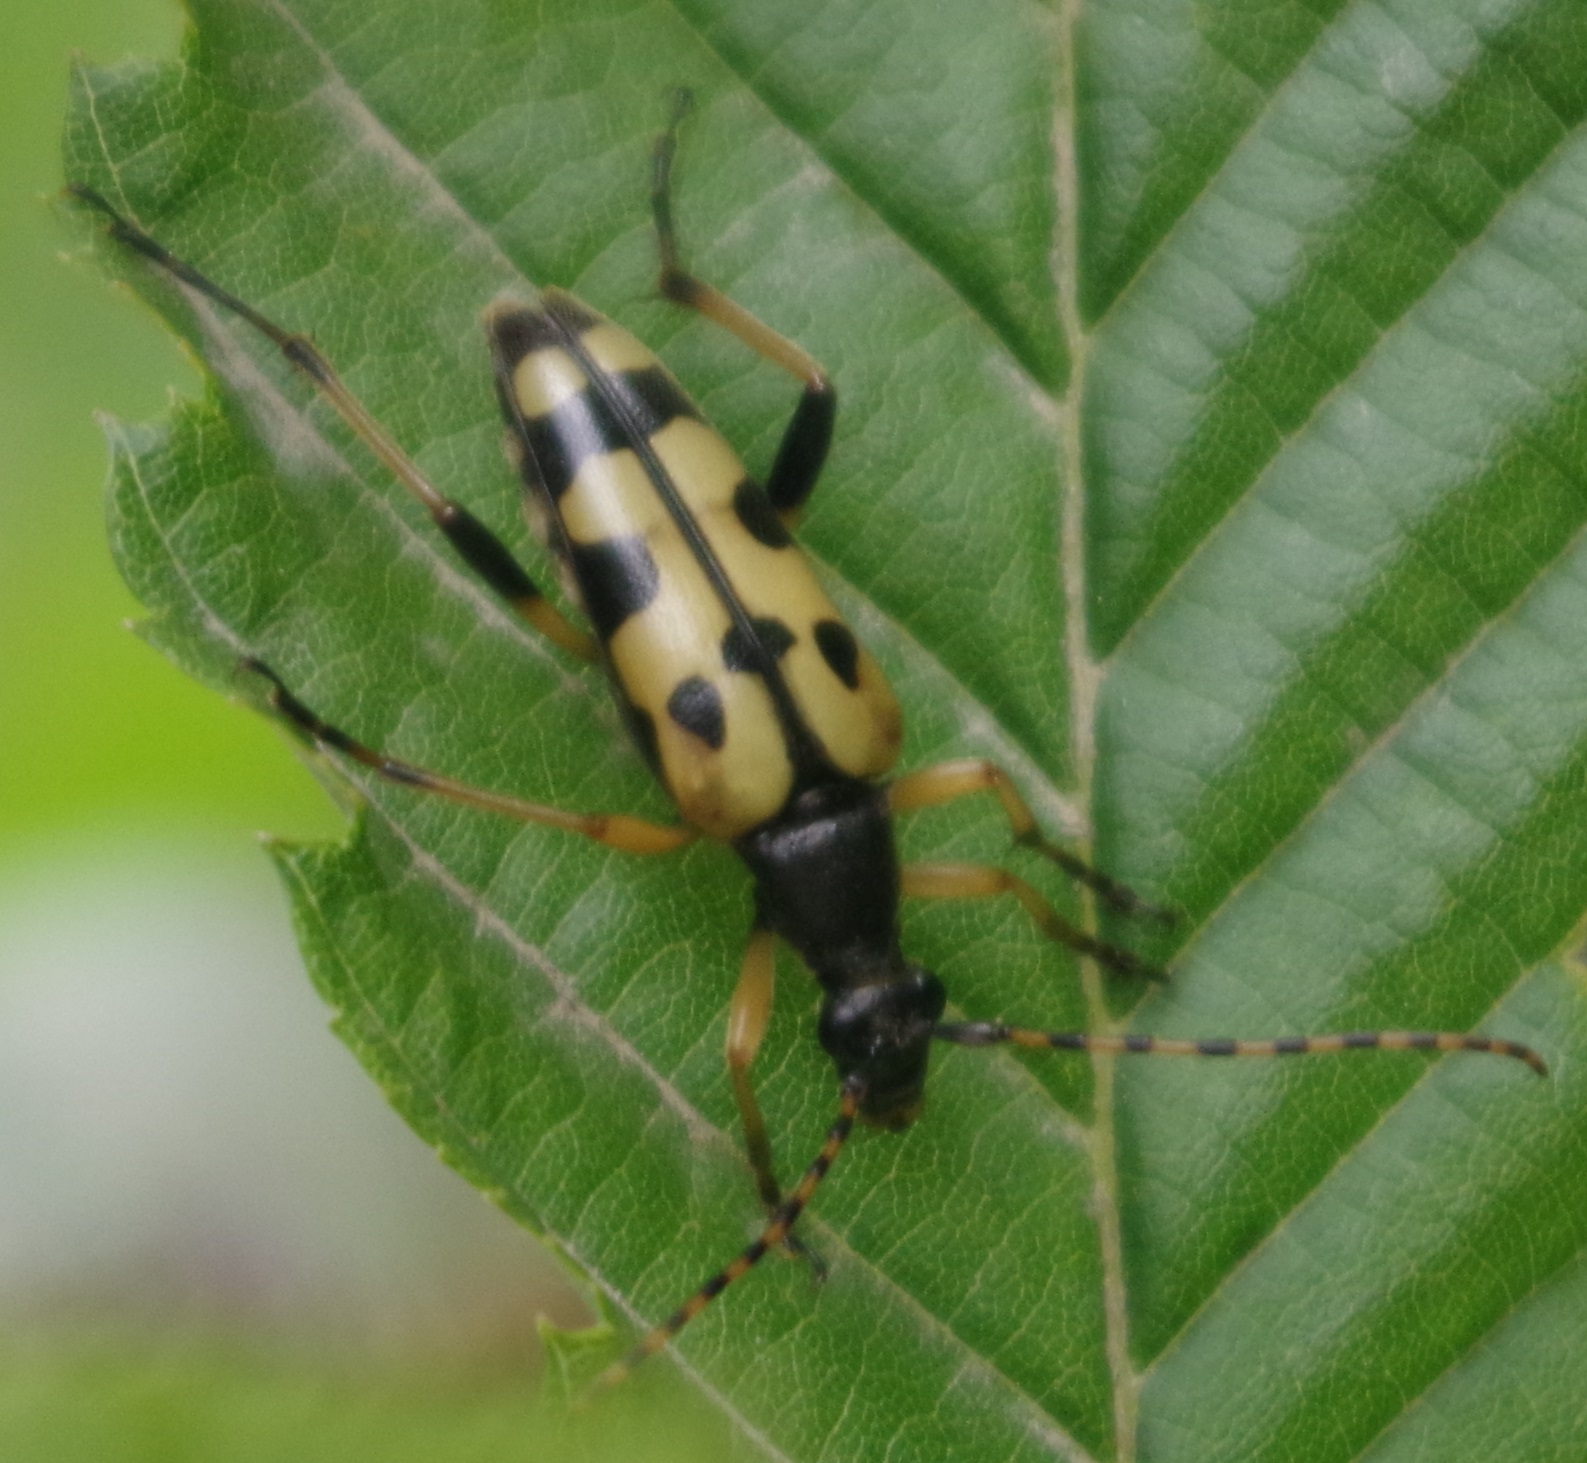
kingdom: Animalia
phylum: Arthropoda
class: Insecta
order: Coleoptera
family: Cerambycidae
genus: Rutpela
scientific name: Rutpela maculata
